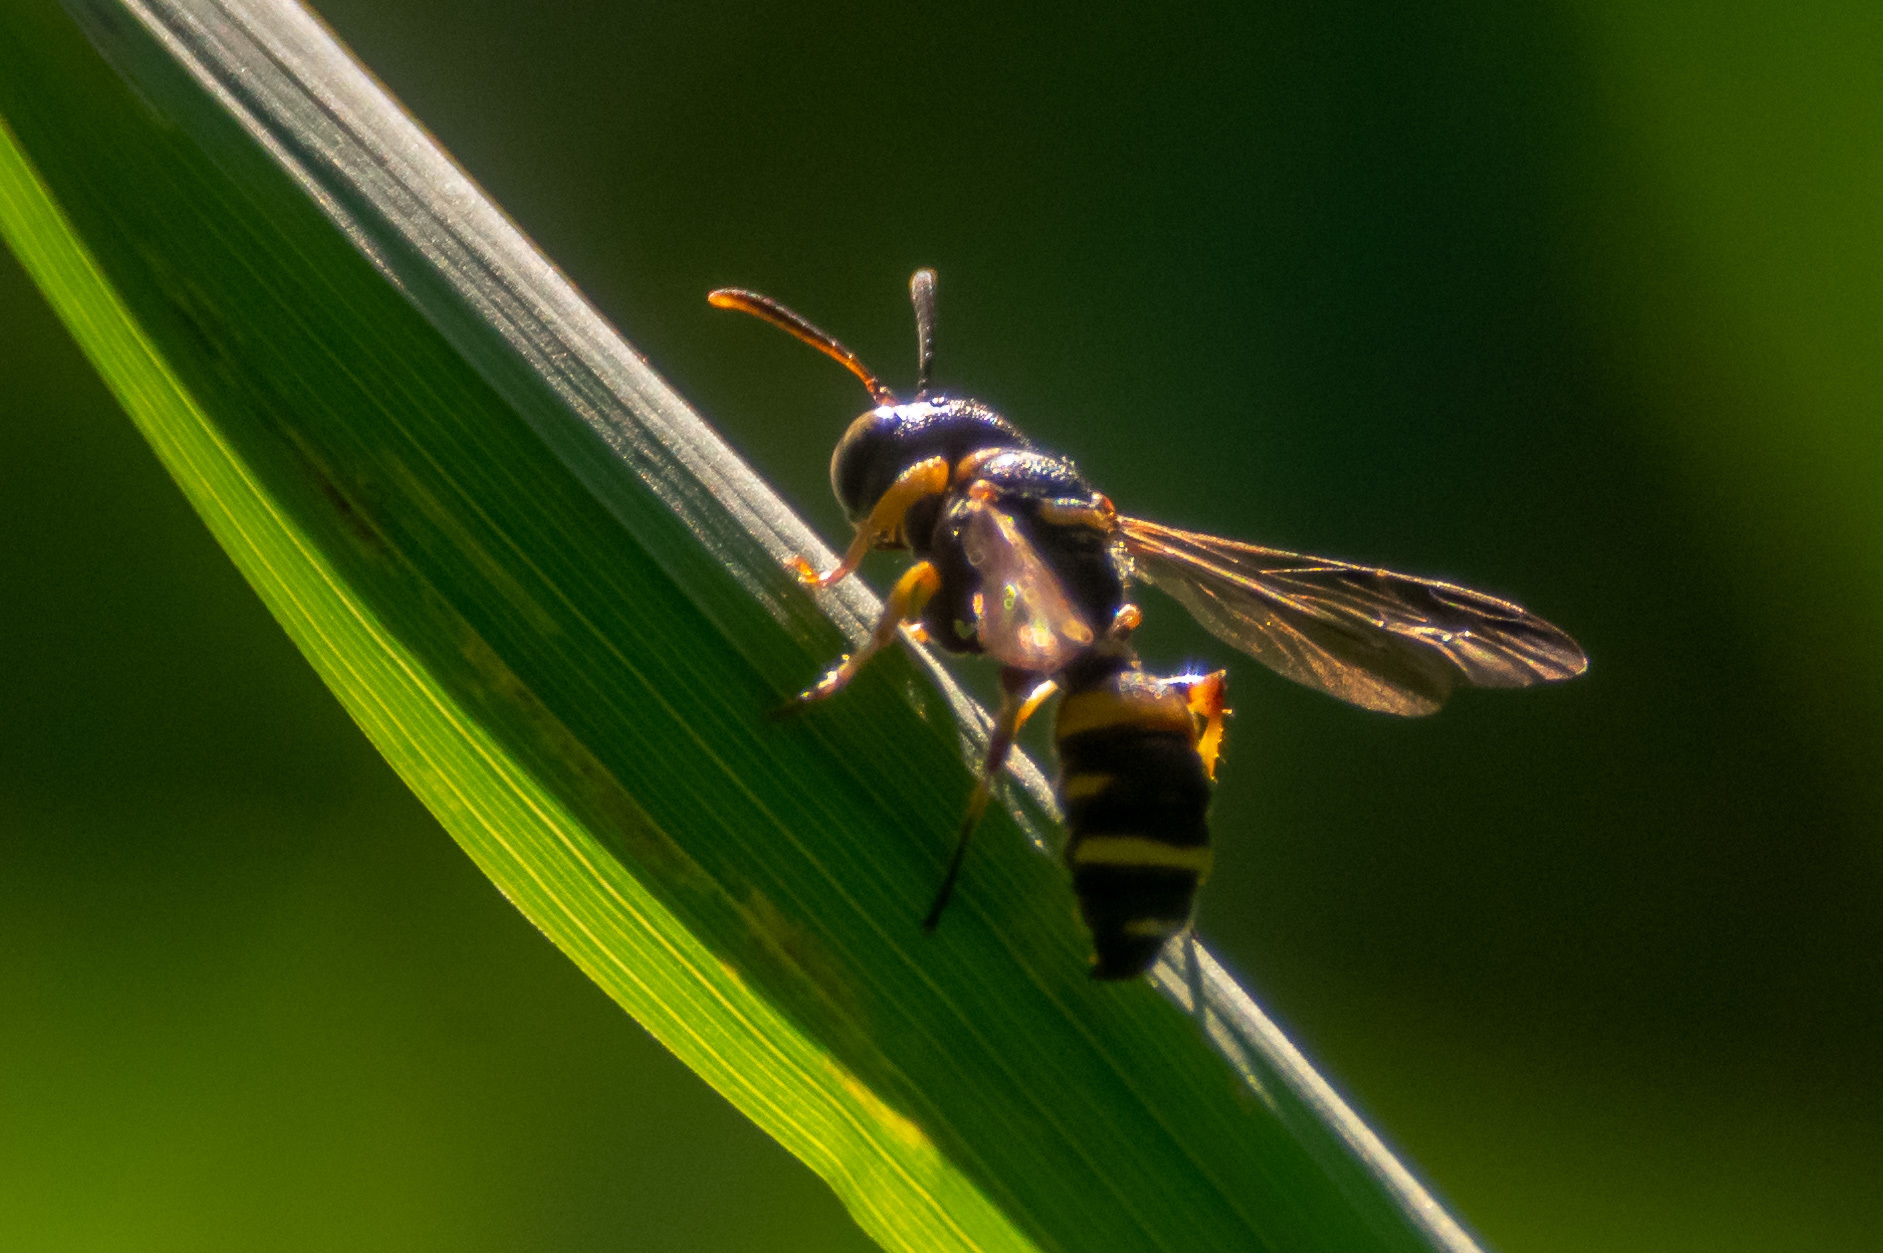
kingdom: Animalia
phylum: Arthropoda
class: Insecta
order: Hymenoptera
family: Crabronidae
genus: Cerceris
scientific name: Cerceris kennicottii
